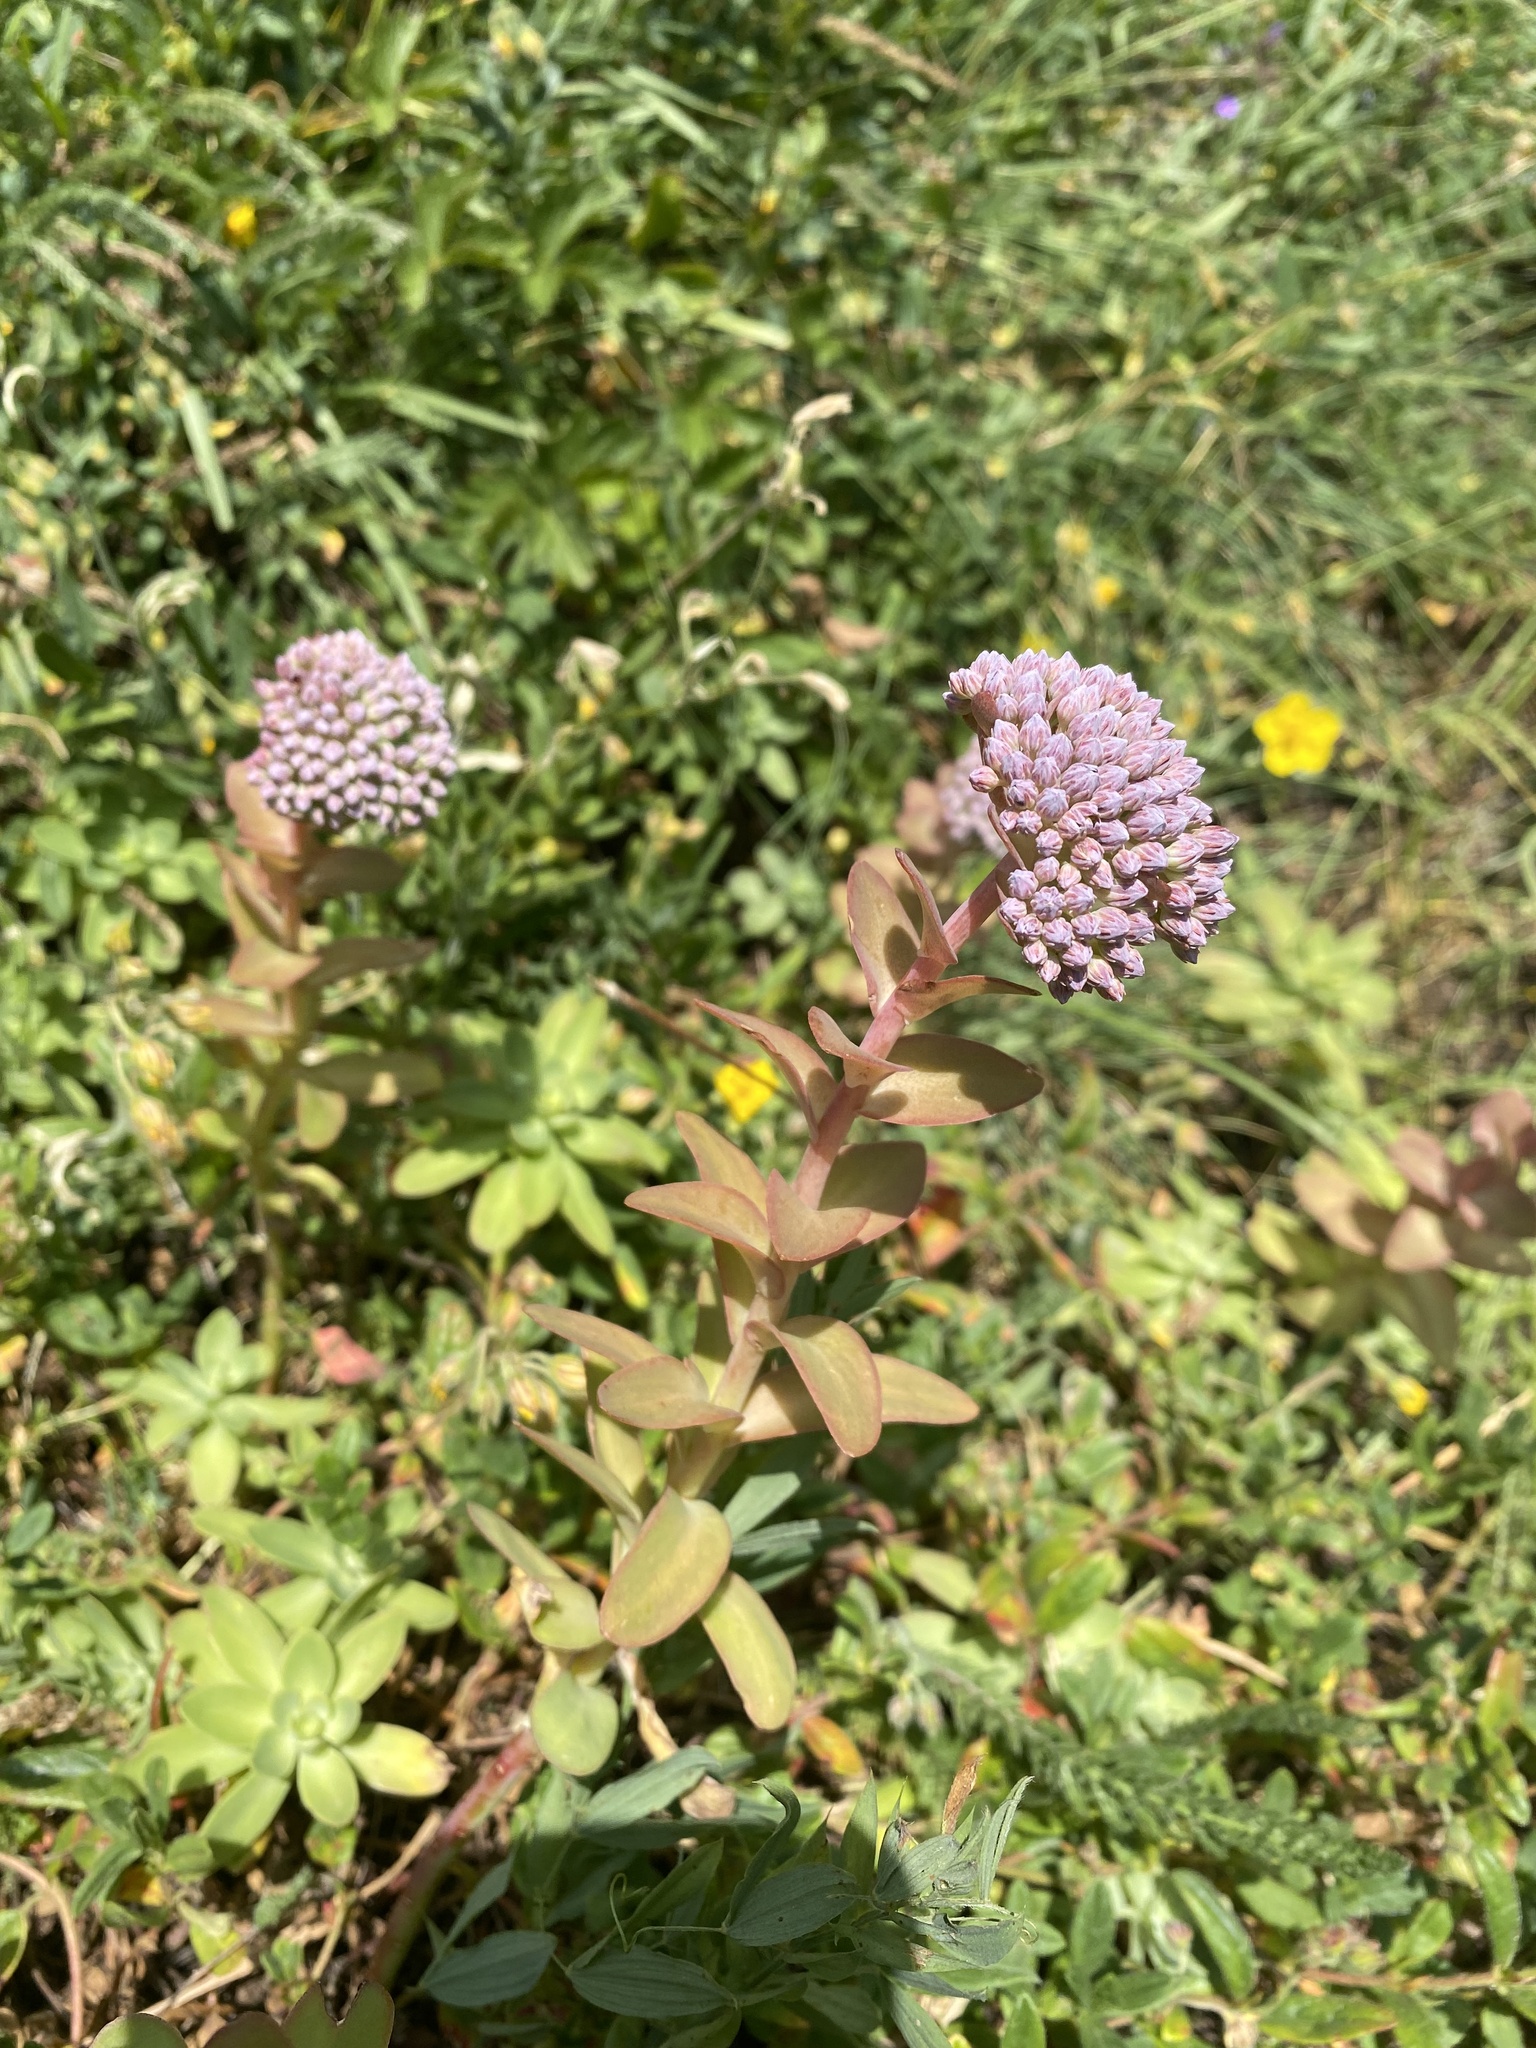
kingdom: Plantae
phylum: Tracheophyta
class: Magnoliopsida
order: Saxifragales
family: Crassulaceae
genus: Hylotelephium
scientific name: Hylotelephium anacampseros
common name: Love-restorer
